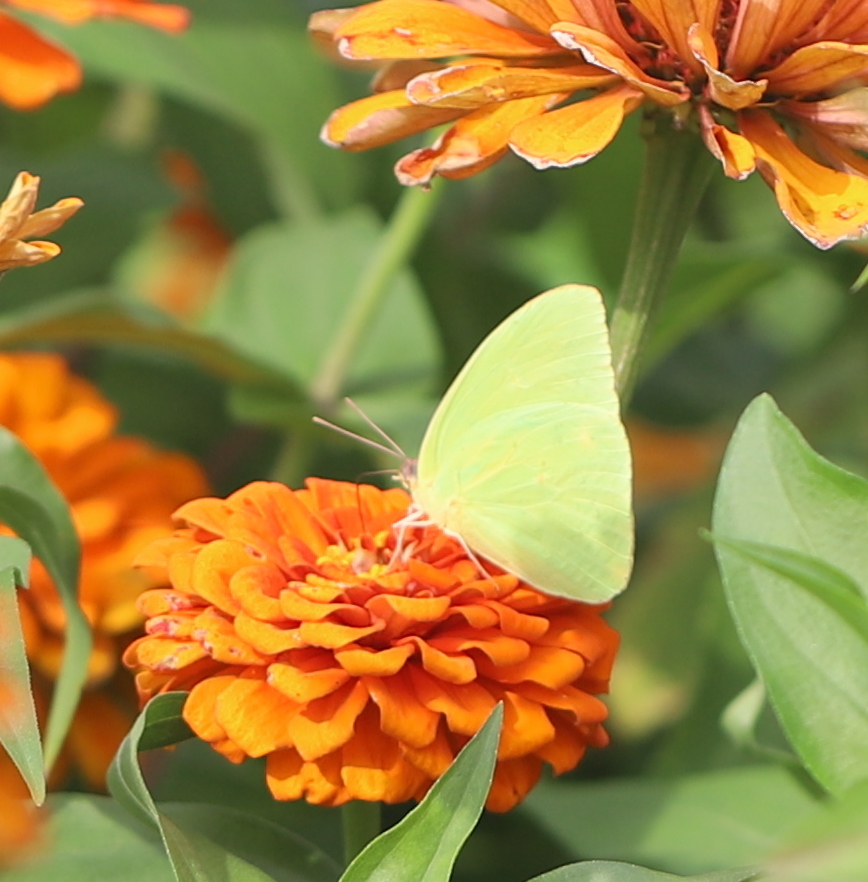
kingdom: Animalia
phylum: Arthropoda
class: Insecta
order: Lepidoptera
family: Pieridae
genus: Phoebis
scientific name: Phoebis sennae
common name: Cloudless sulphur
